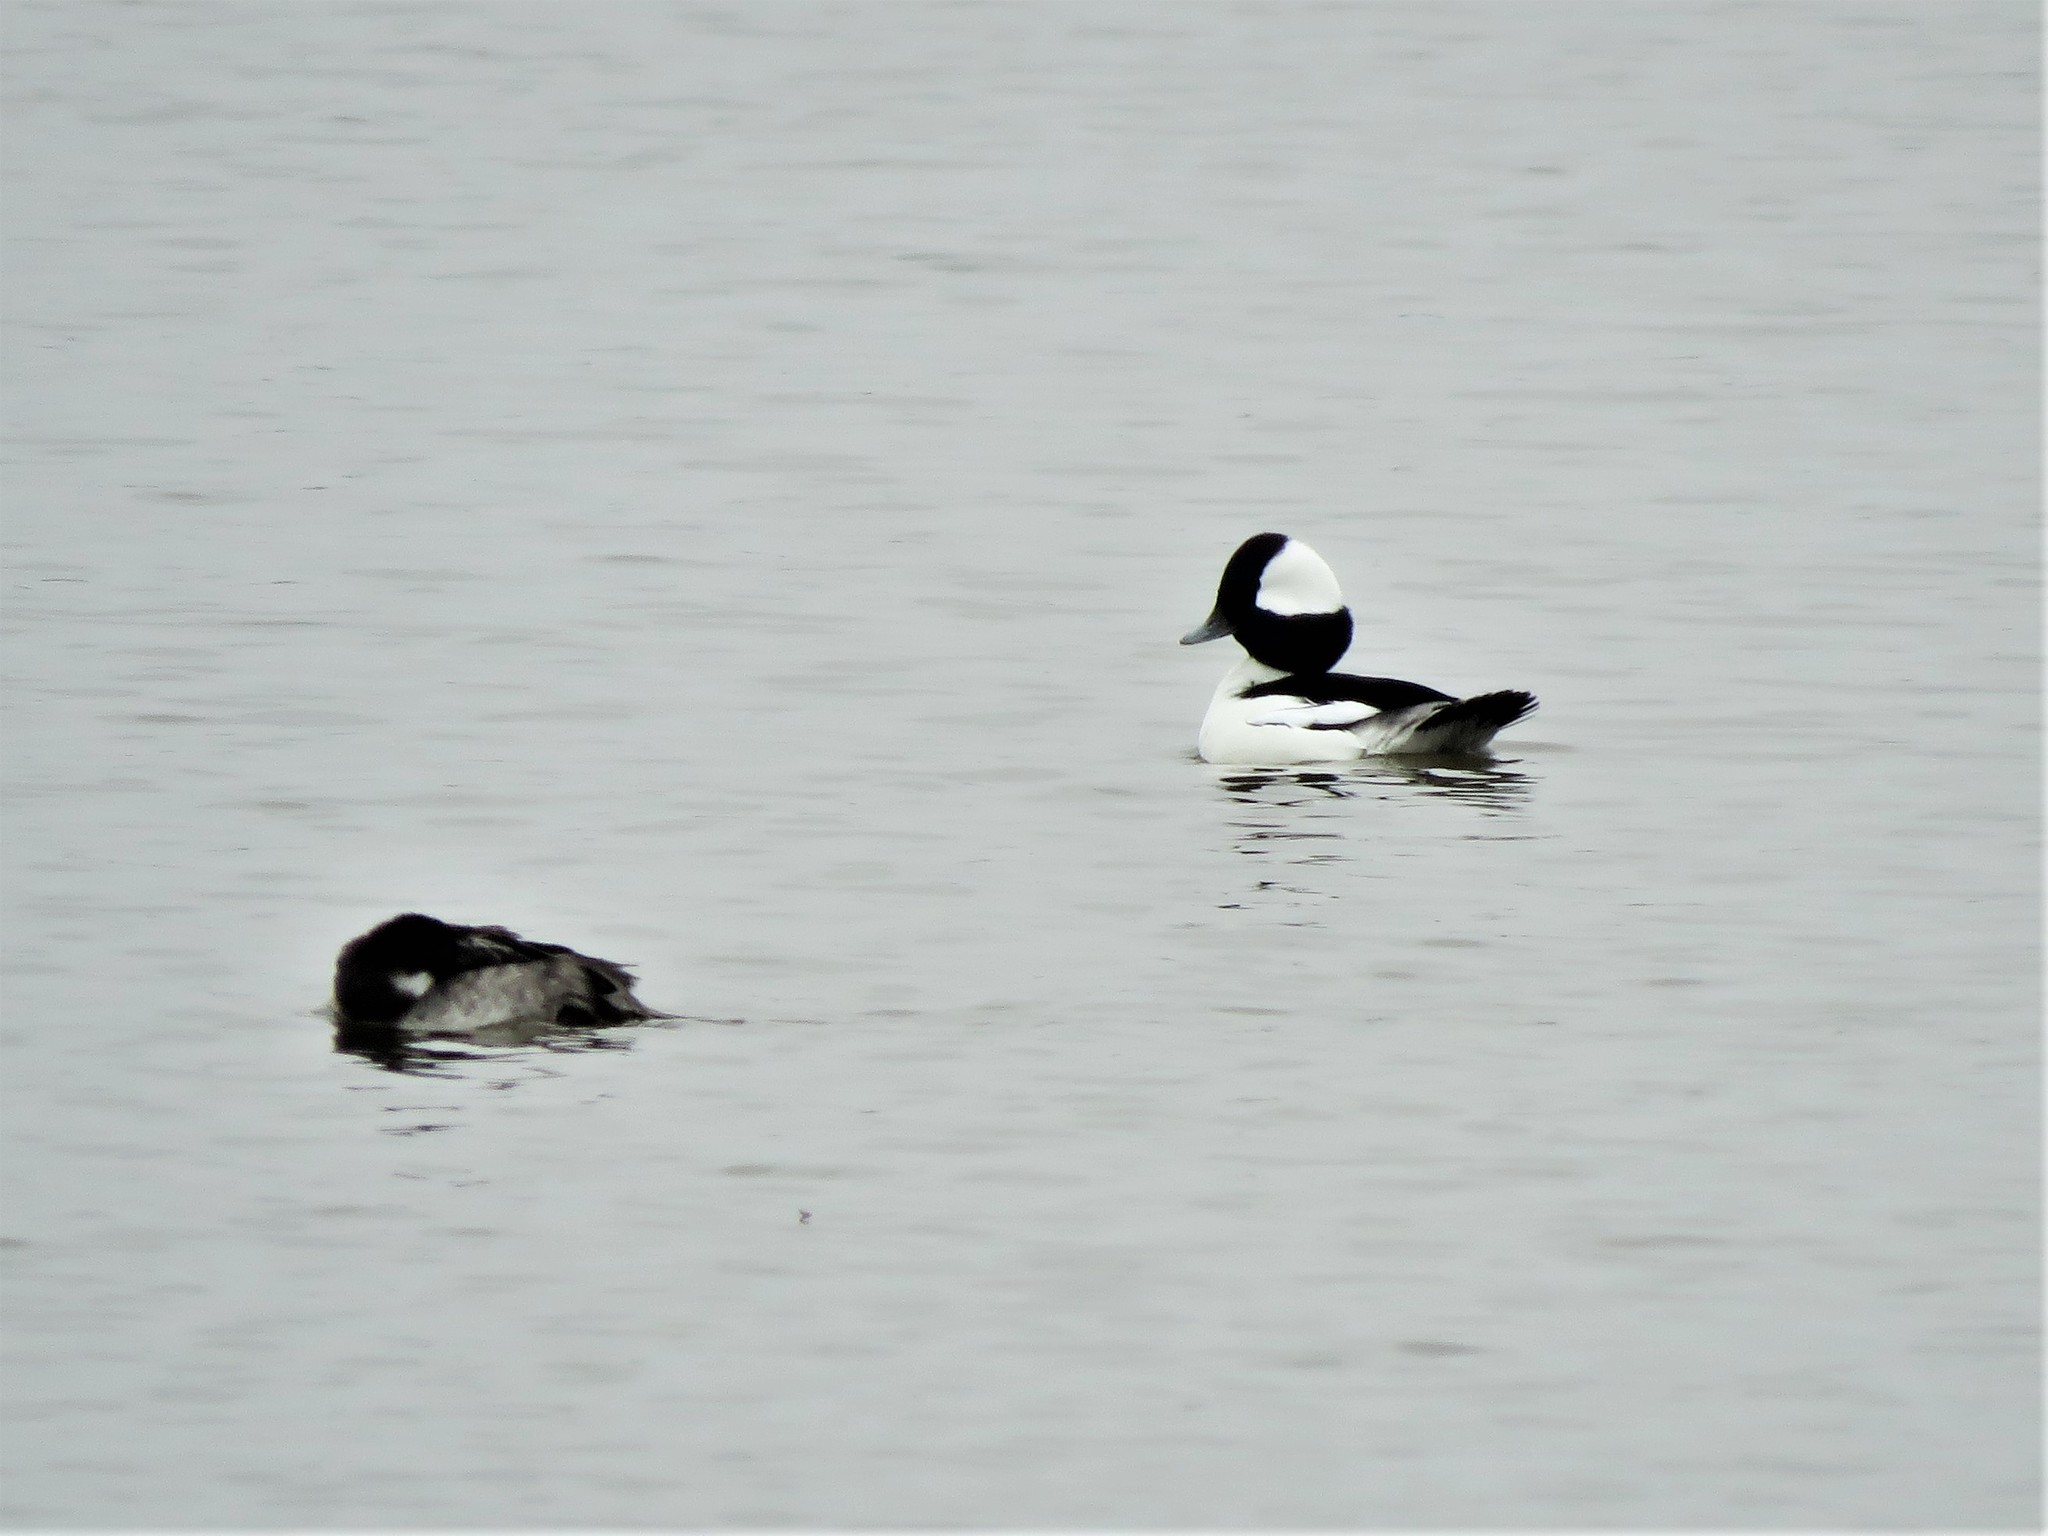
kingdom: Animalia
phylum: Chordata
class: Aves
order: Anseriformes
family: Anatidae
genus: Bucephala
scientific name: Bucephala albeola
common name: Bufflehead
